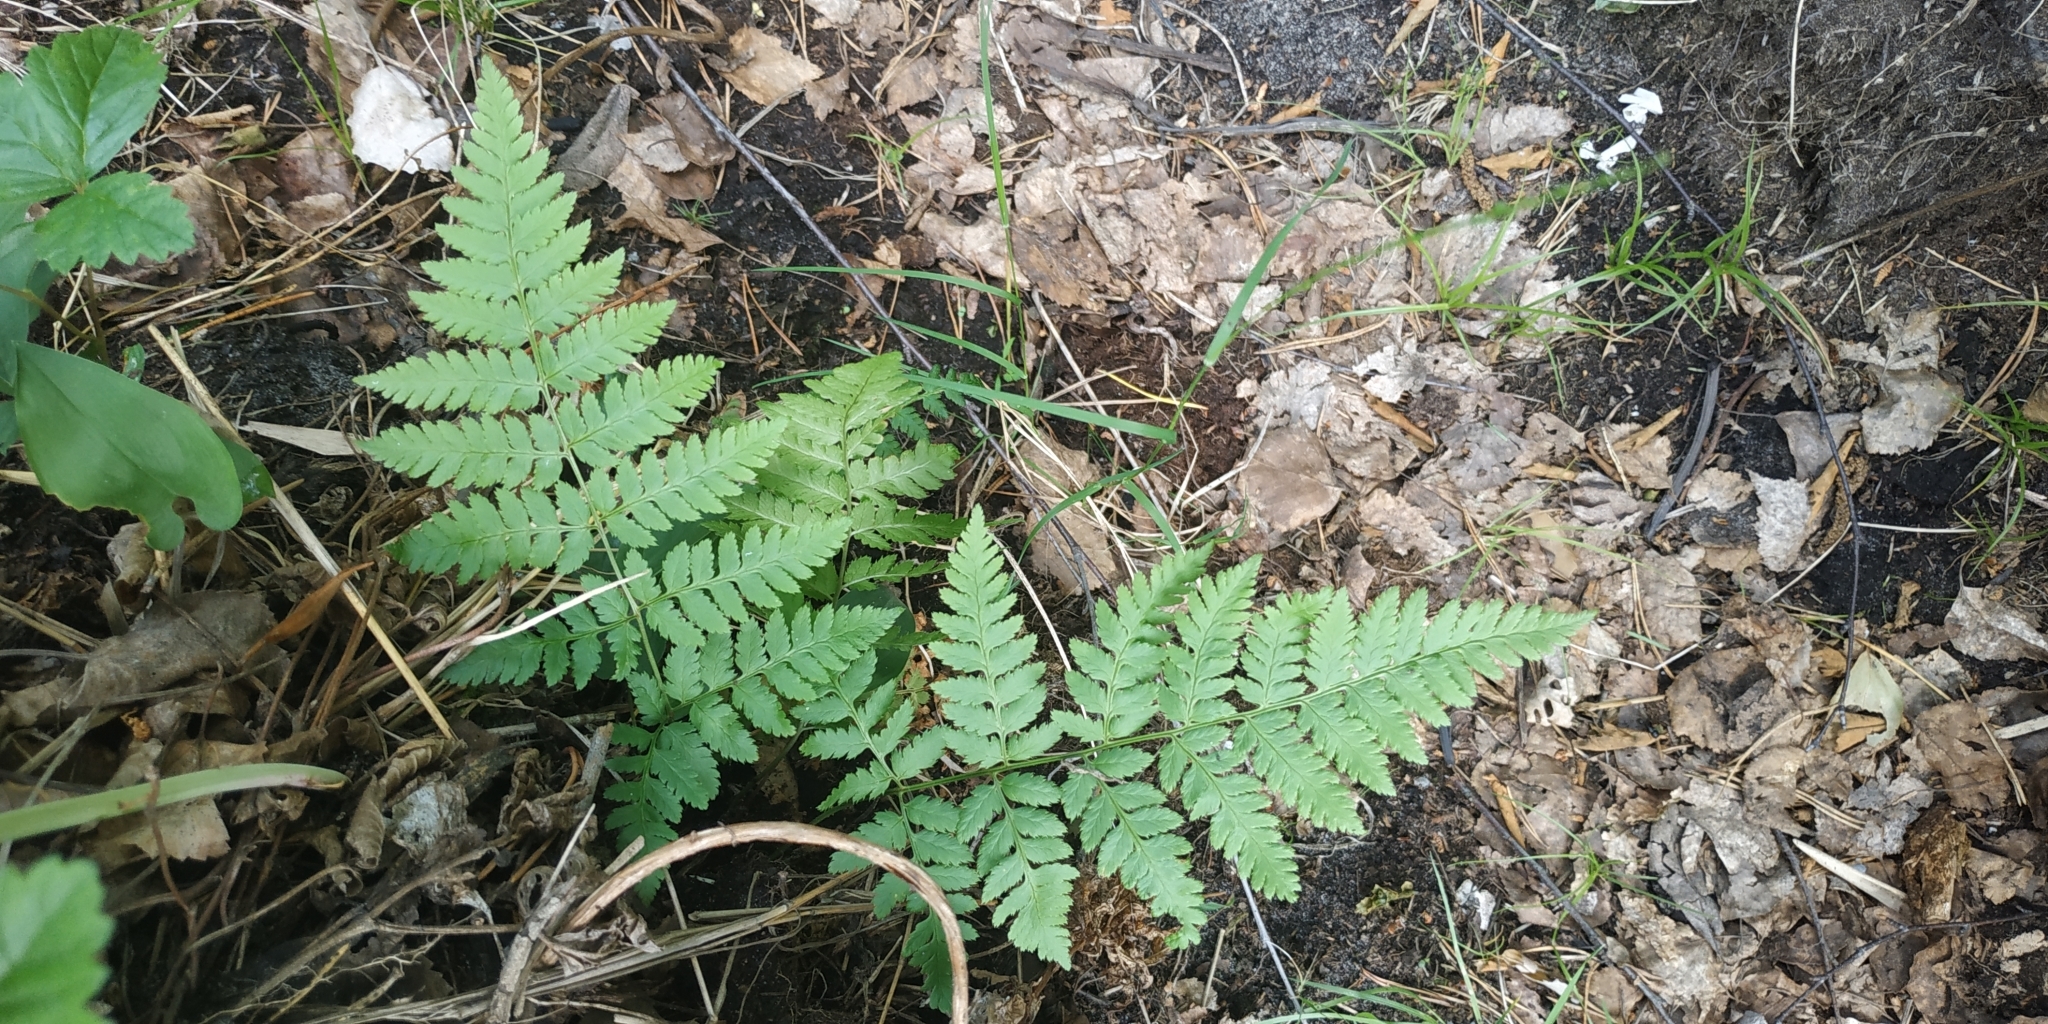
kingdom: Plantae
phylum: Tracheophyta
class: Polypodiopsida
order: Polypodiales
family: Dryopteridaceae
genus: Dryopteris
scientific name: Dryopteris carthusiana
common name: Narrow buckler-fern
